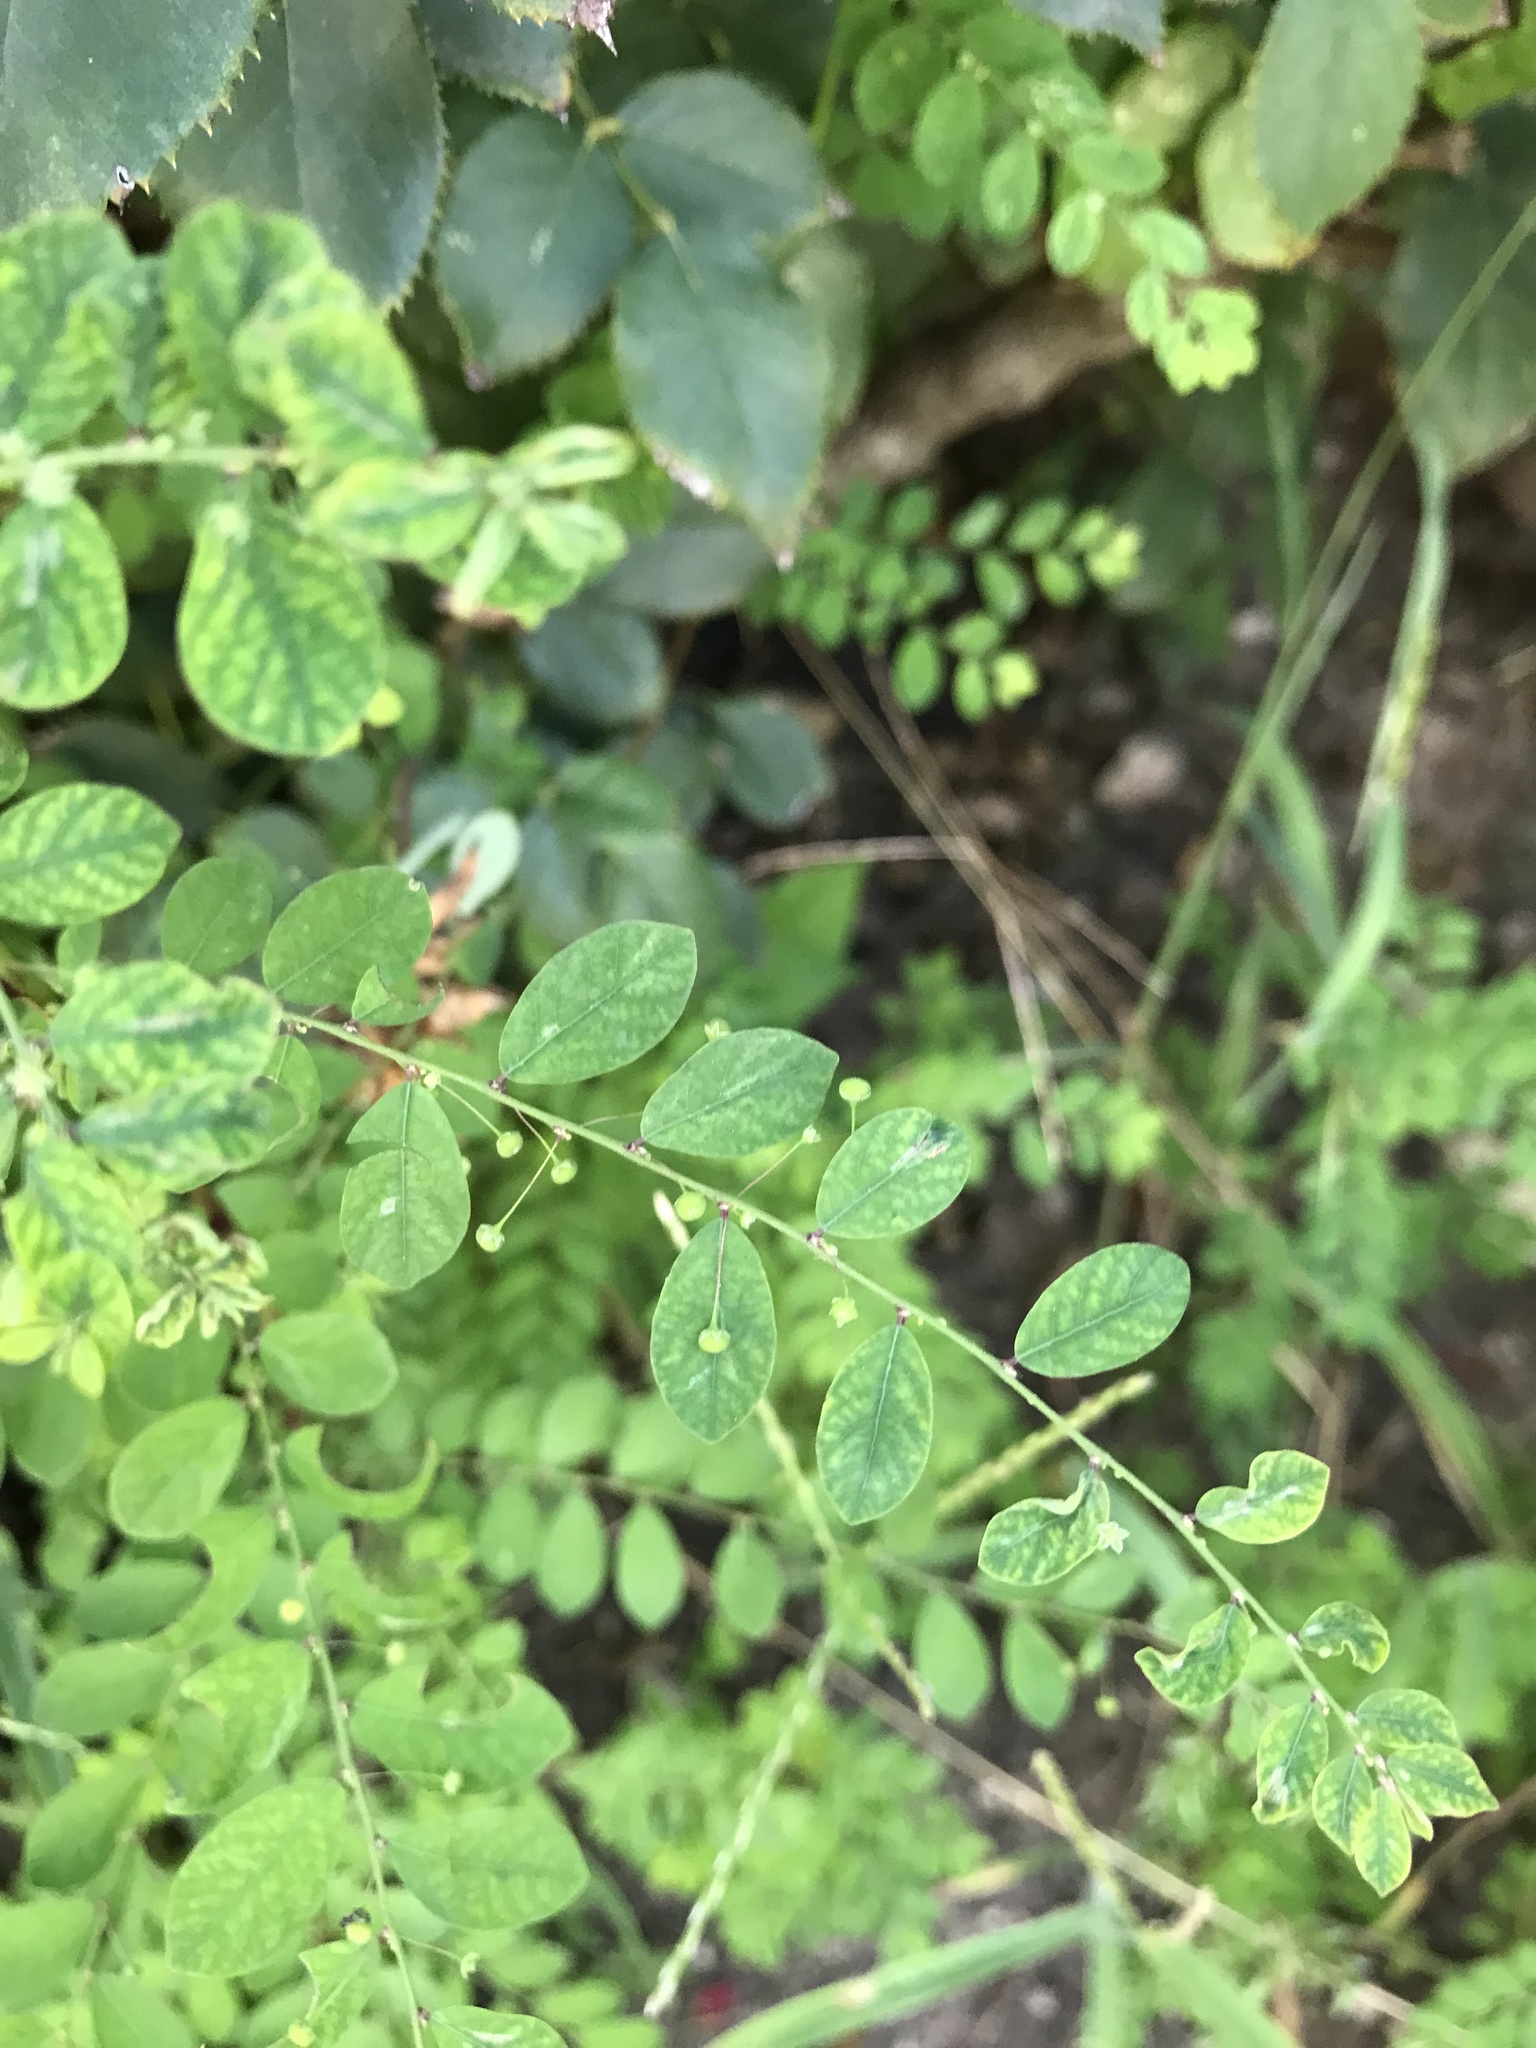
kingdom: Plantae
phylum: Tracheophyta
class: Magnoliopsida
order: Malpighiales
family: Phyllanthaceae
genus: Phyllanthus
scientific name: Phyllanthus tenellus
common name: Mascarene island leaf-flower
